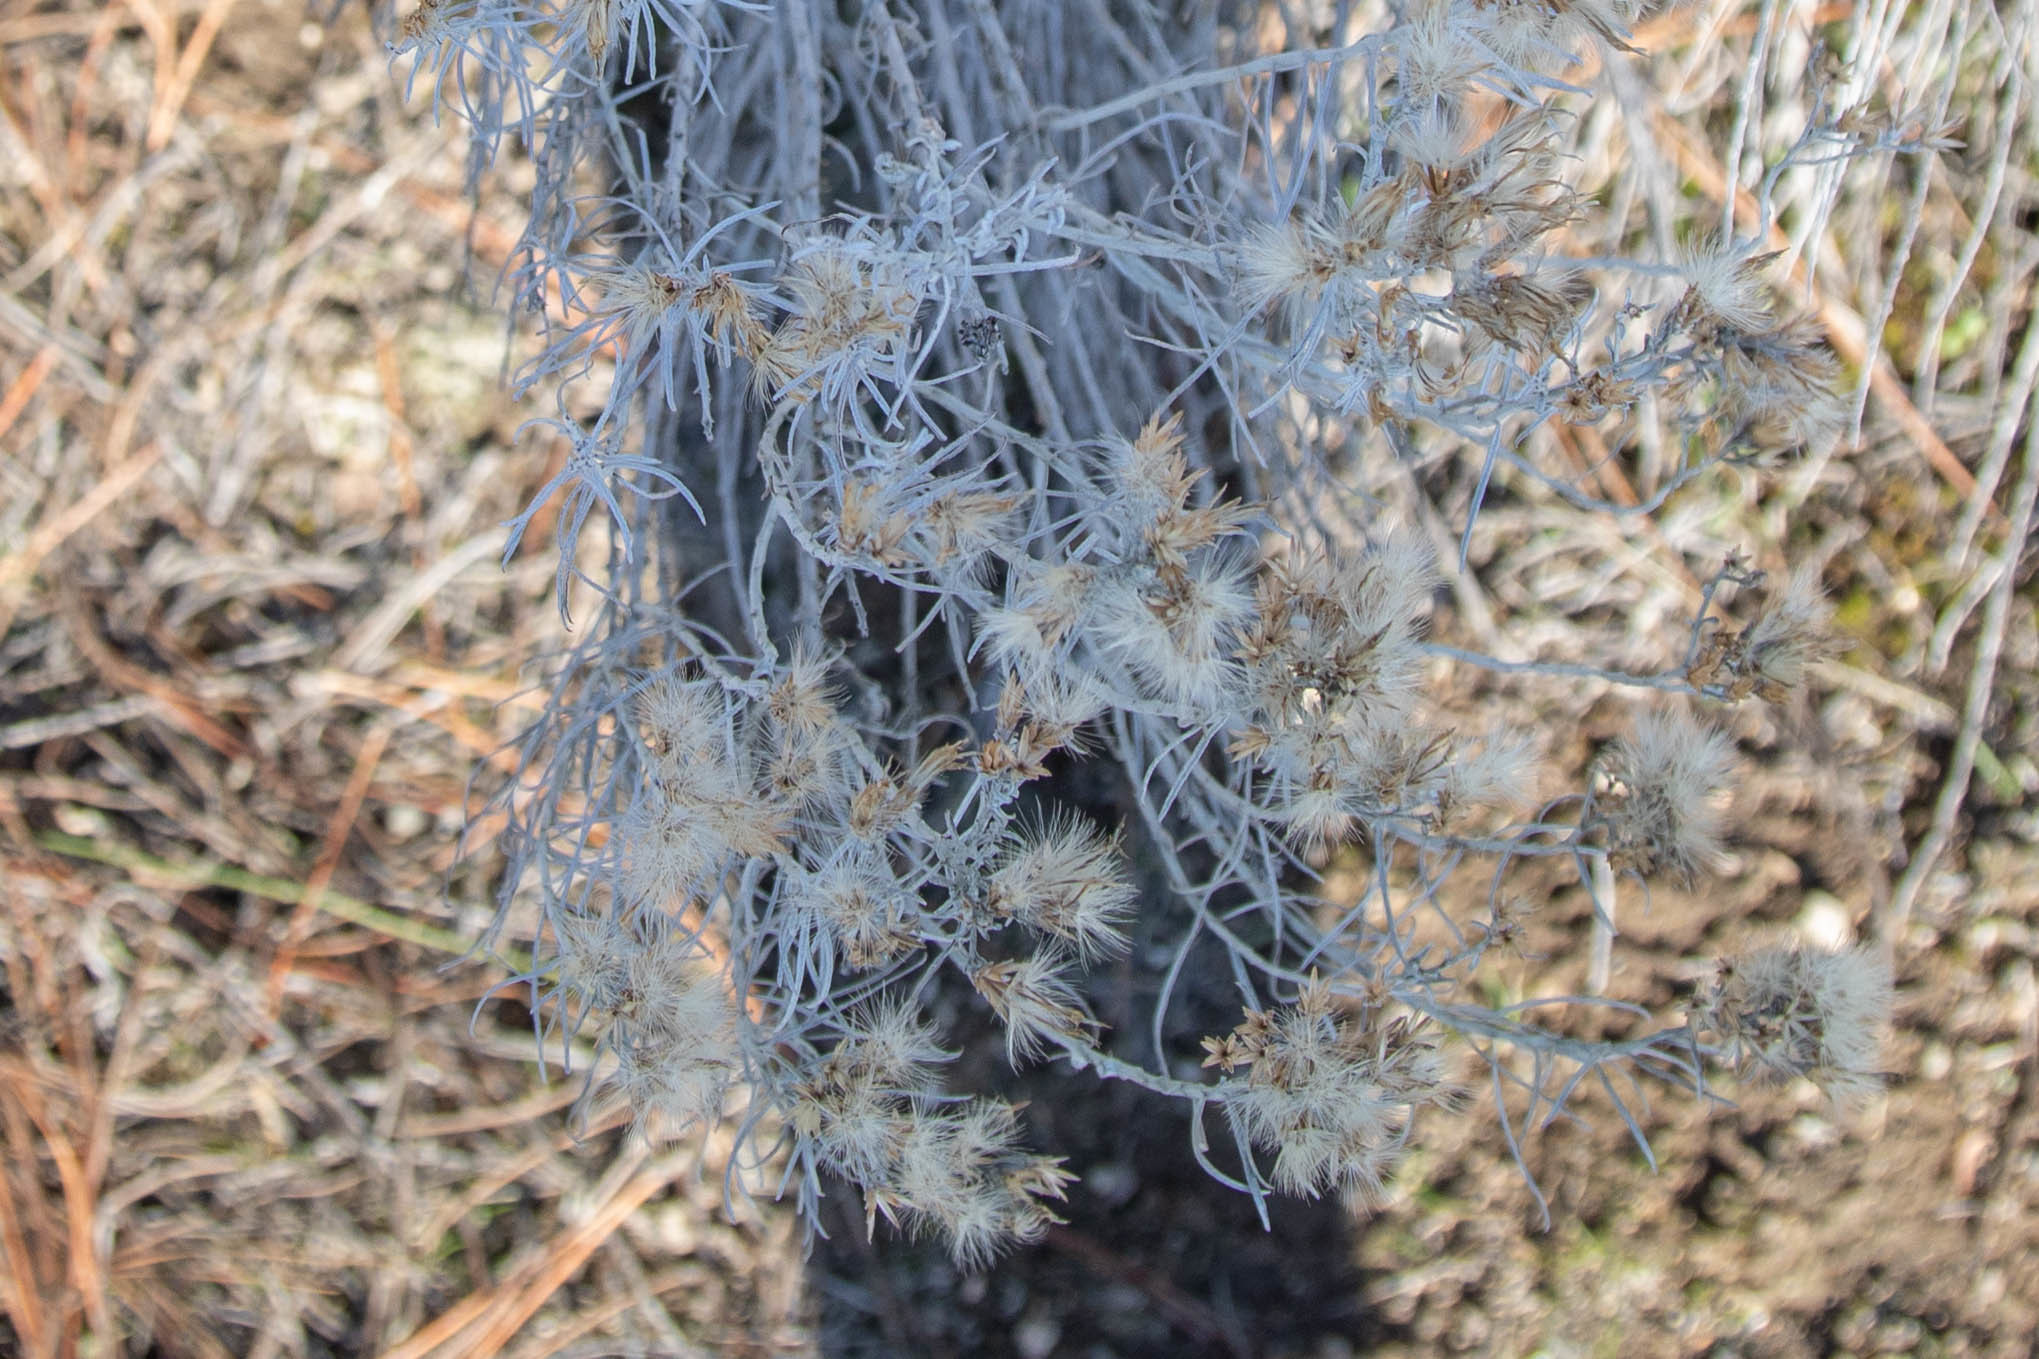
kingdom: Plantae
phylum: Tracheophyta
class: Magnoliopsida
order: Asterales
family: Asteraceae
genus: Ericameria
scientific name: Ericameria nauseosa
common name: Rubber rabbitbrush
